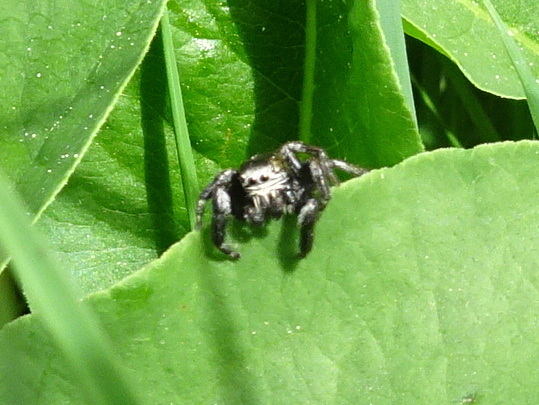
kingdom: Animalia
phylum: Arthropoda
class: Arachnida
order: Araneae
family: Salticidae
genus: Evarcha
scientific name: Evarcha arcuata
